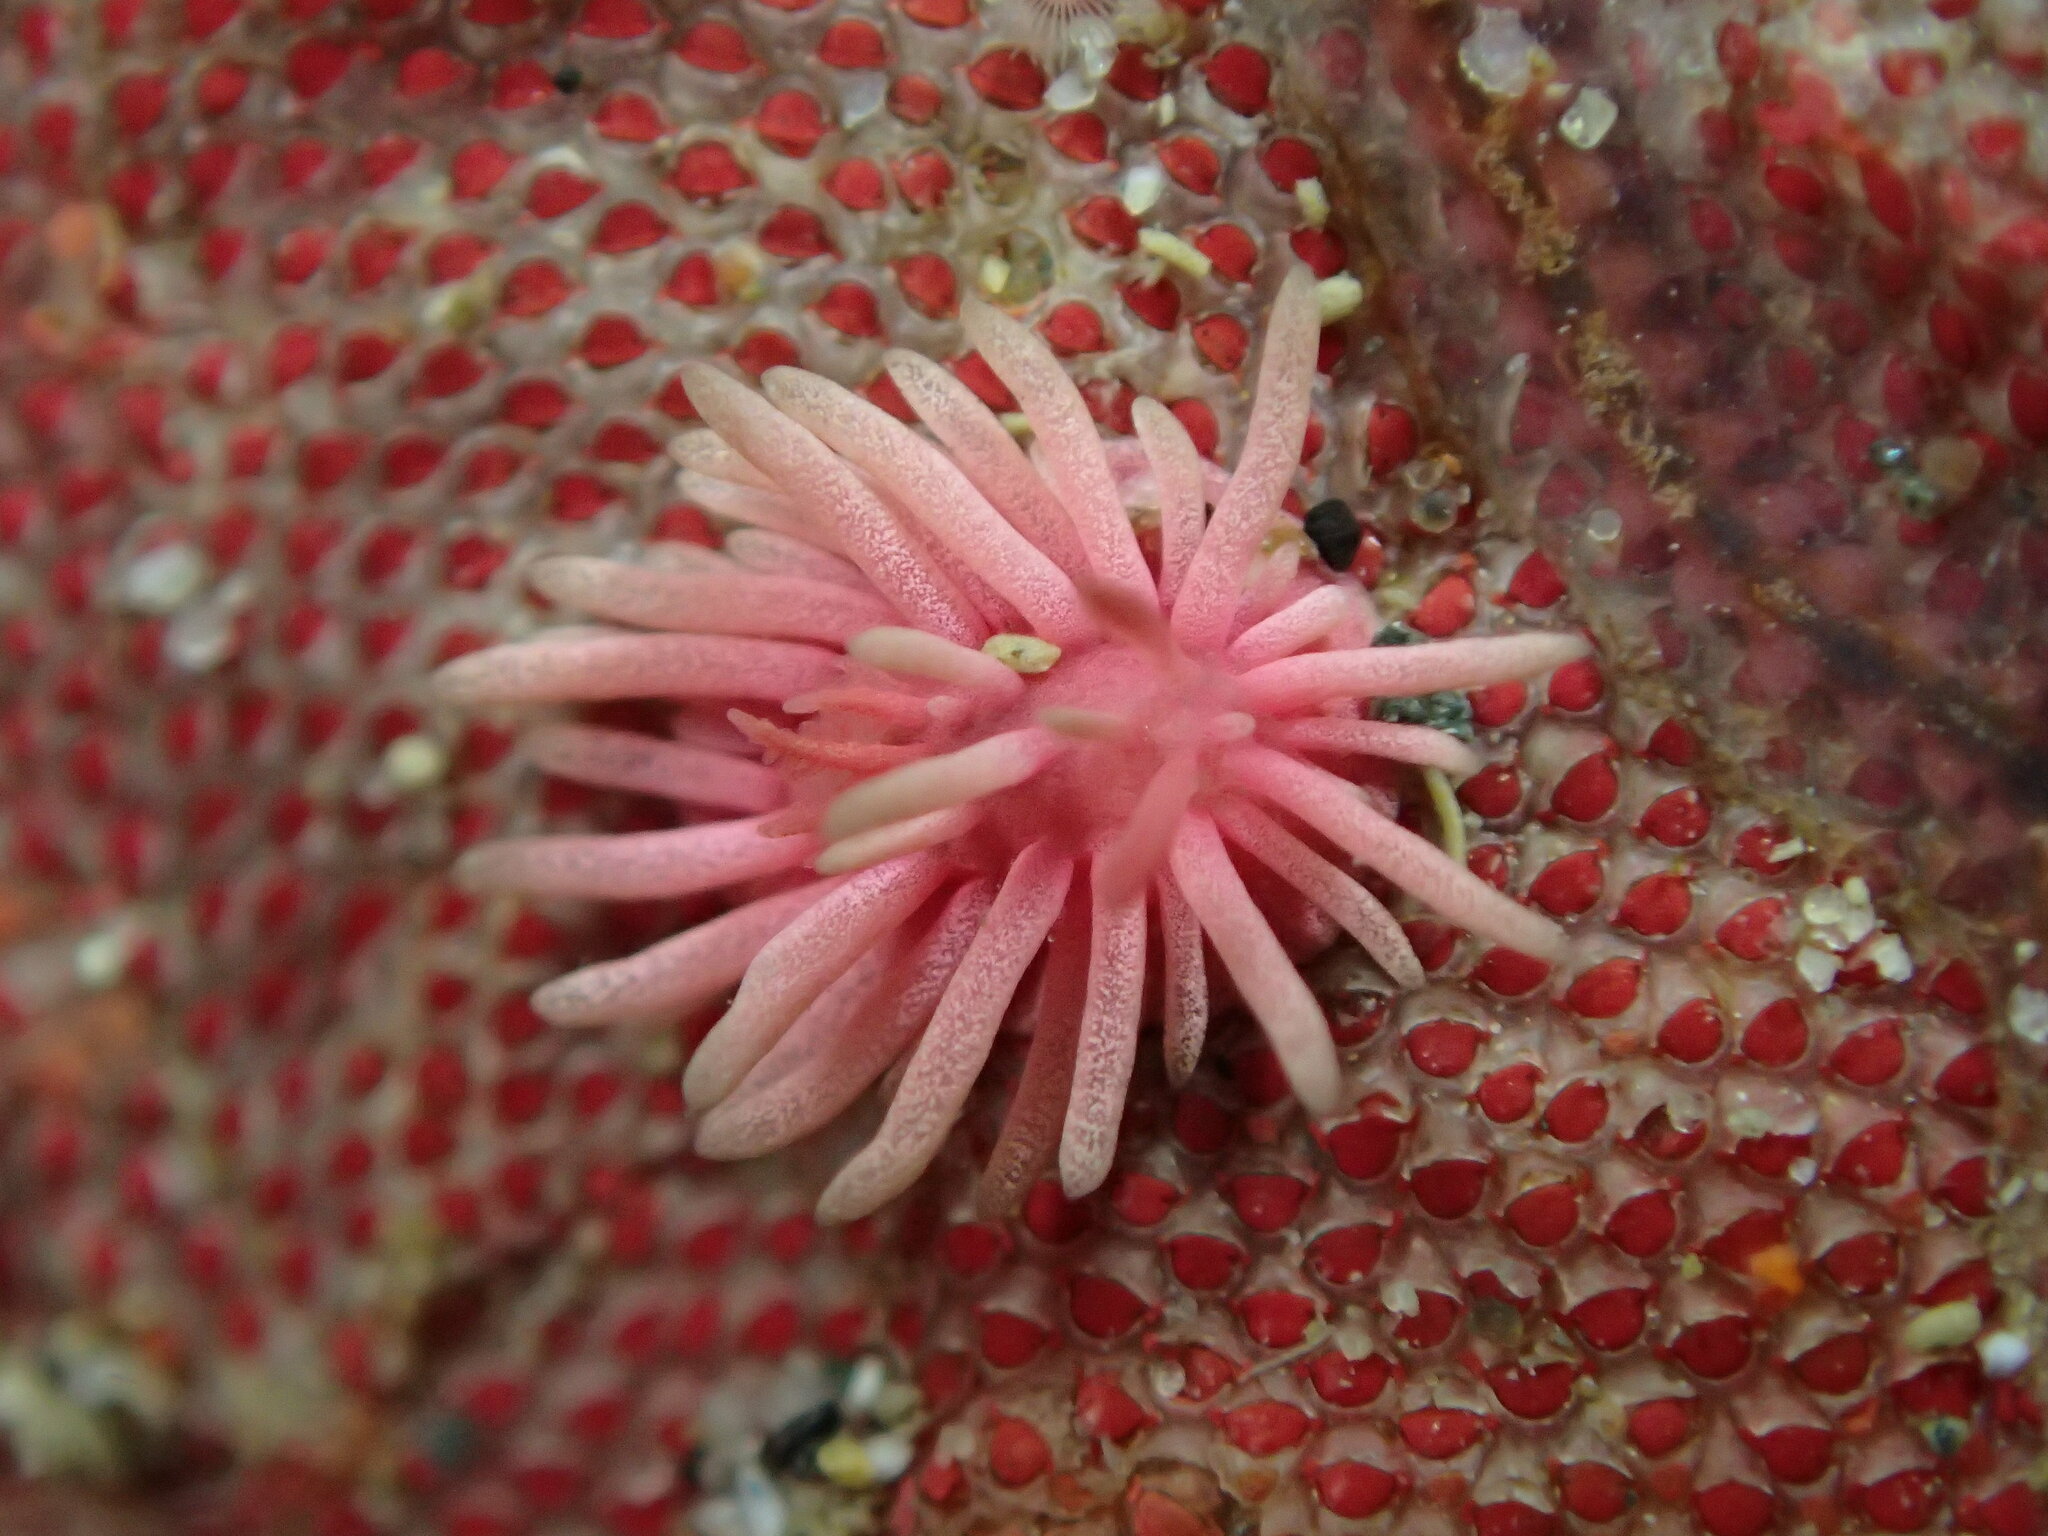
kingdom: Animalia
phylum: Mollusca
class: Gastropoda
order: Nudibranchia
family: Goniodorididae
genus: Okenia
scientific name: Okenia
